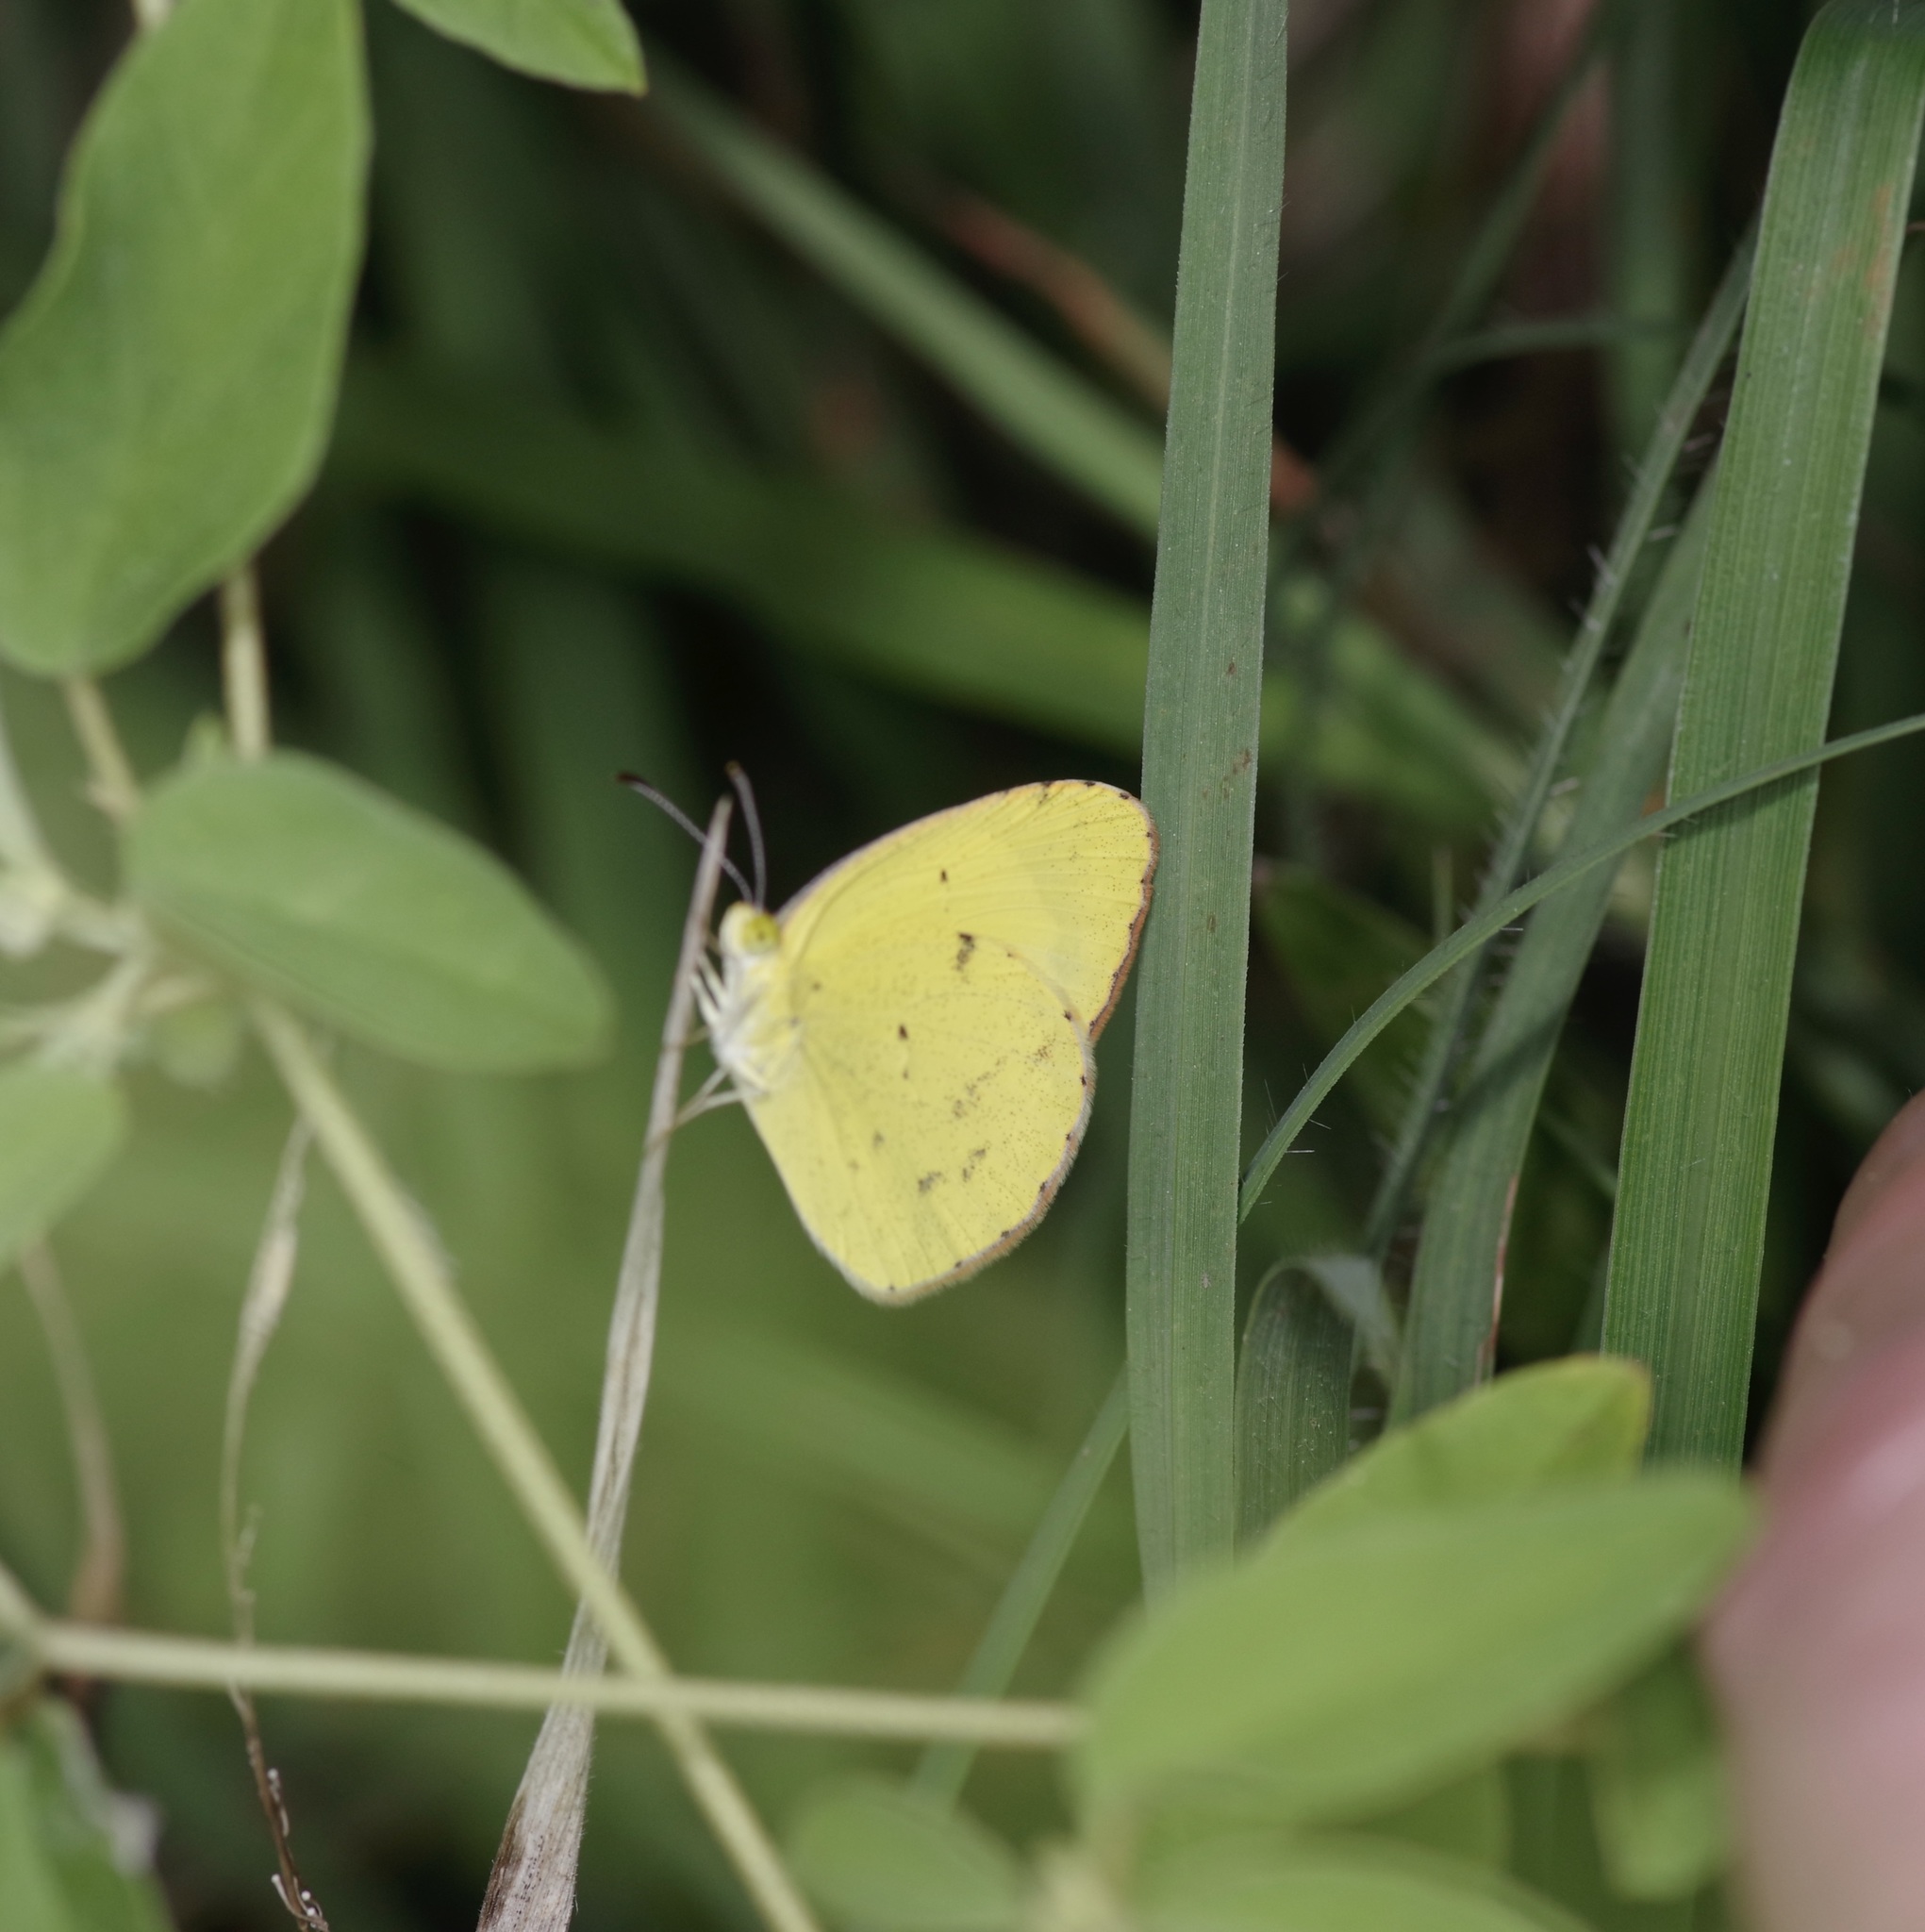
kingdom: Animalia
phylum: Arthropoda
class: Insecta
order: Lepidoptera
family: Pieridae
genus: Pyrisitia
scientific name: Pyrisitia lisa
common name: Little yellow
